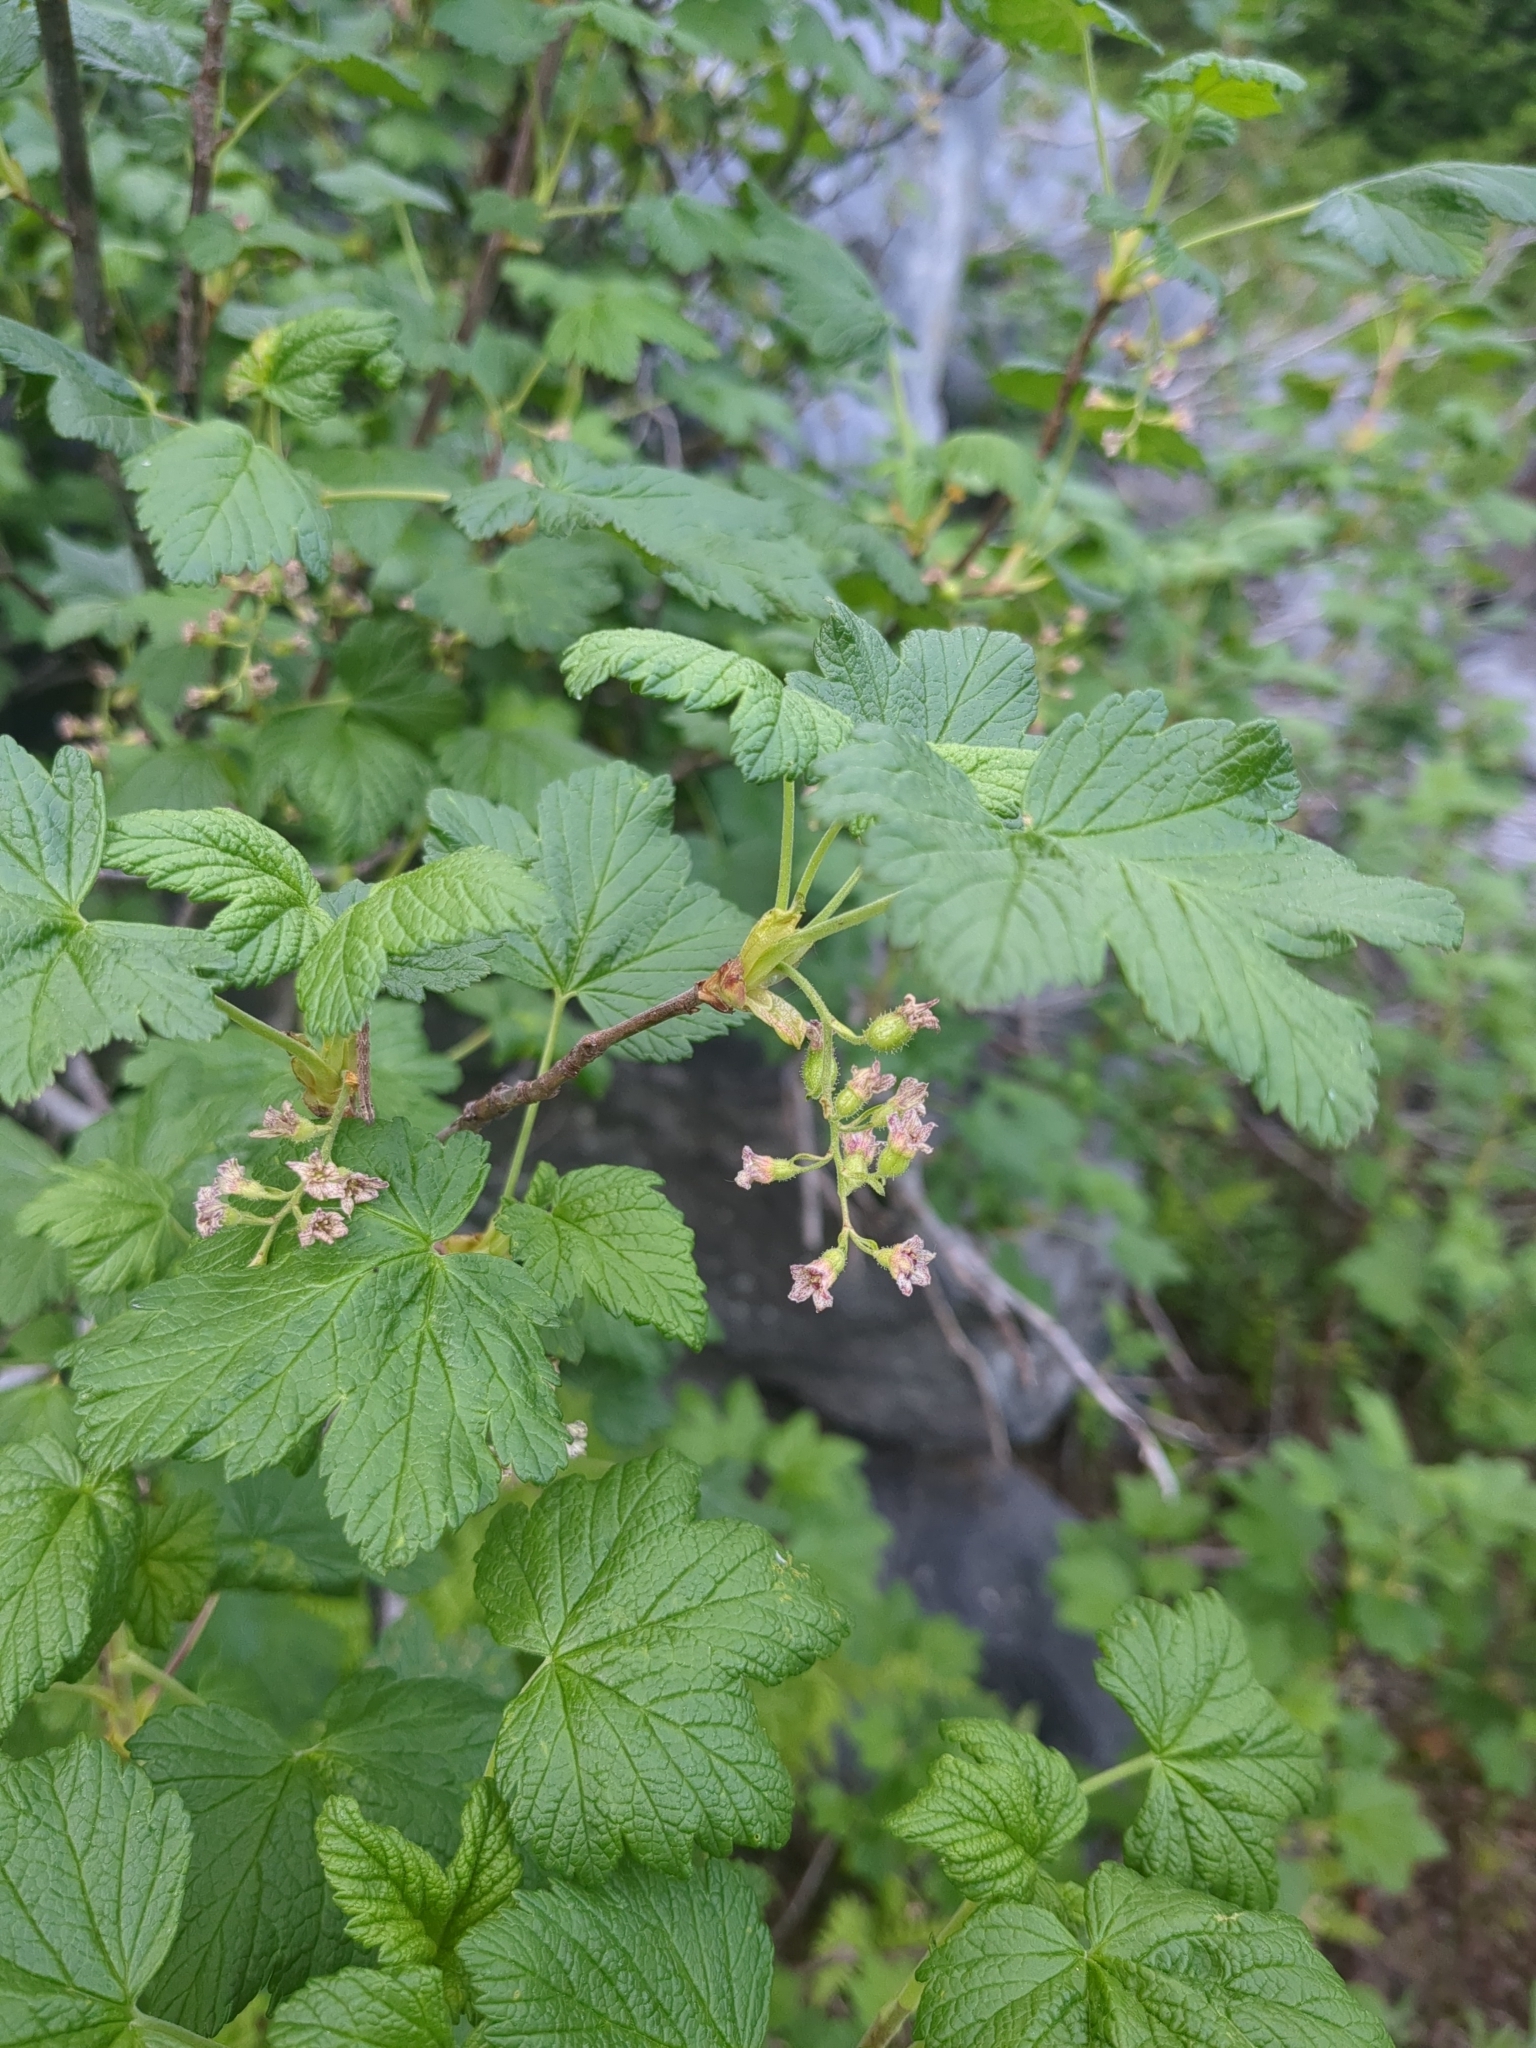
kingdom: Plantae
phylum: Tracheophyta
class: Magnoliopsida
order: Saxifragales
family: Grossulariaceae
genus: Ribes
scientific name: Ribes acerifolium
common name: Maple-leaved black currant
